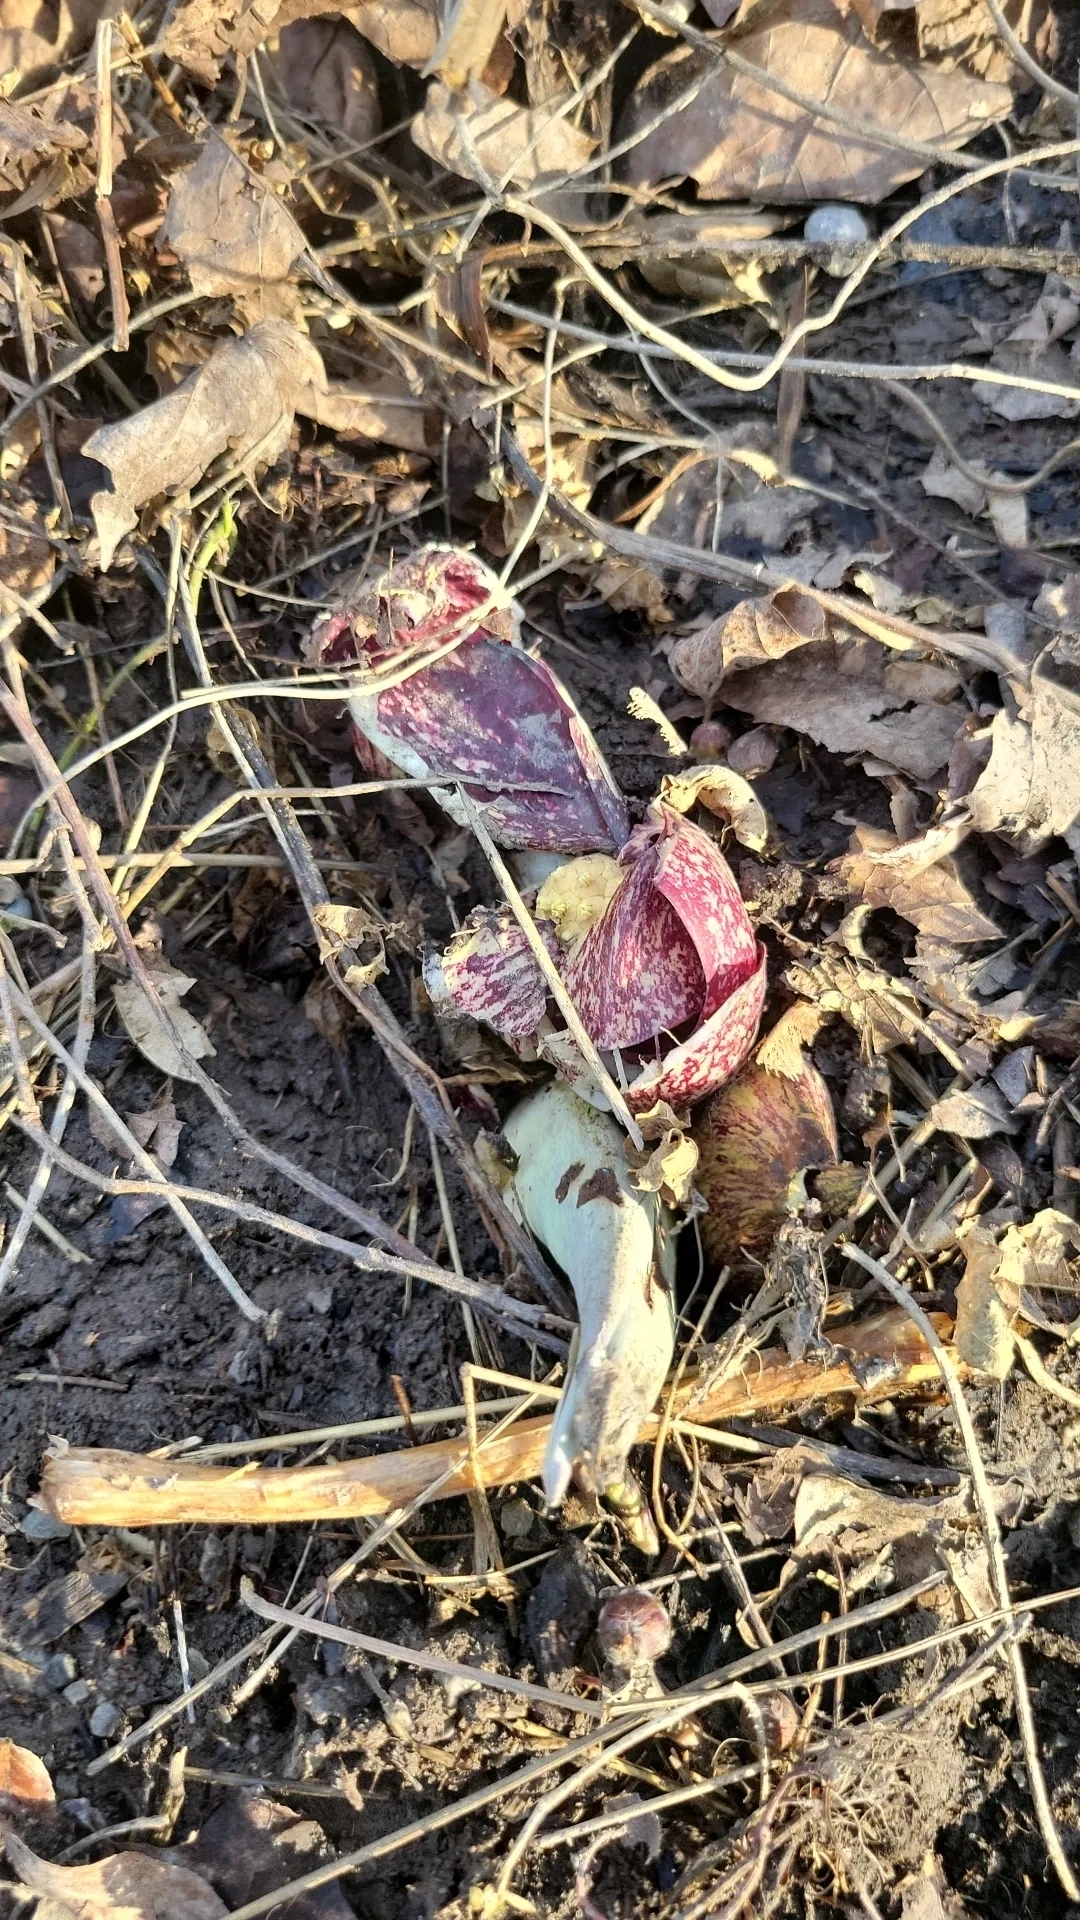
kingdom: Plantae
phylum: Tracheophyta
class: Liliopsida
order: Alismatales
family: Araceae
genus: Symplocarpus
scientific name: Symplocarpus foetidus
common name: Eastern skunk cabbage
